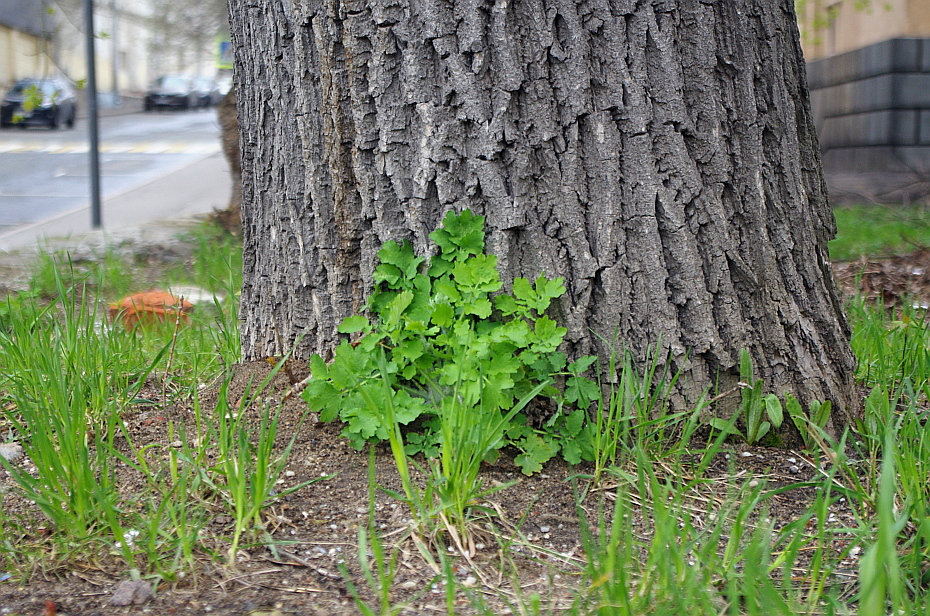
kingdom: Plantae
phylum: Tracheophyta
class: Magnoliopsida
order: Ranunculales
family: Papaveraceae
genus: Chelidonium
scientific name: Chelidonium majus
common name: Greater celandine
